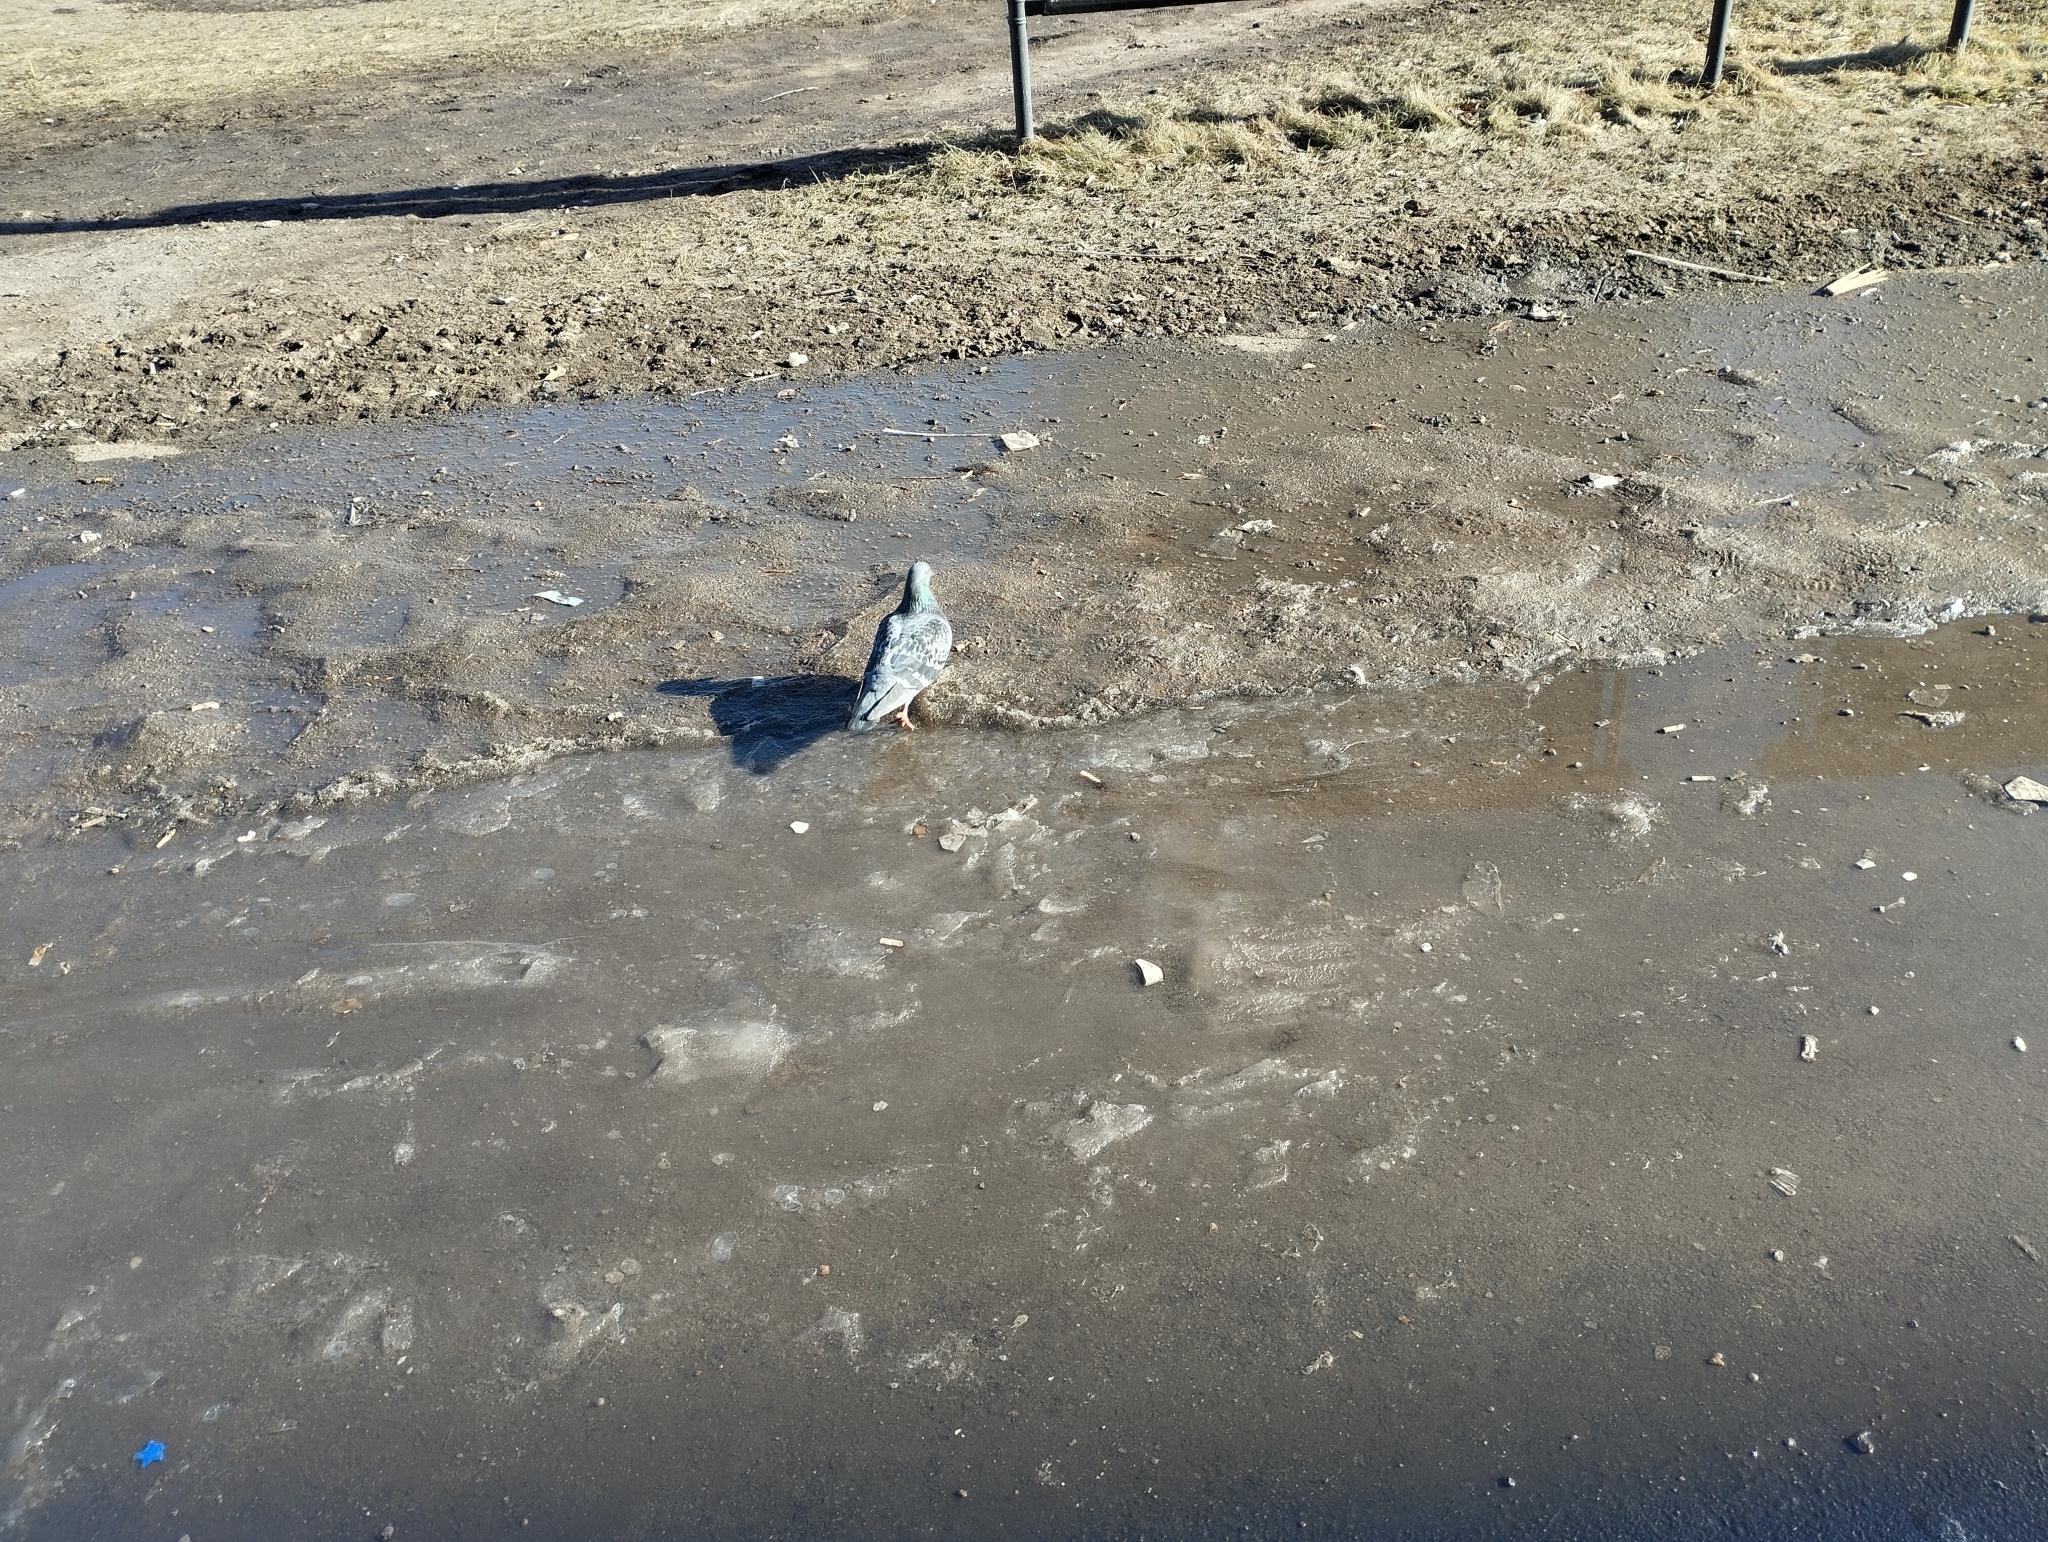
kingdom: Animalia
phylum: Chordata
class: Aves
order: Columbiformes
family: Columbidae
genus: Columba
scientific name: Columba livia
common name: Rock pigeon
